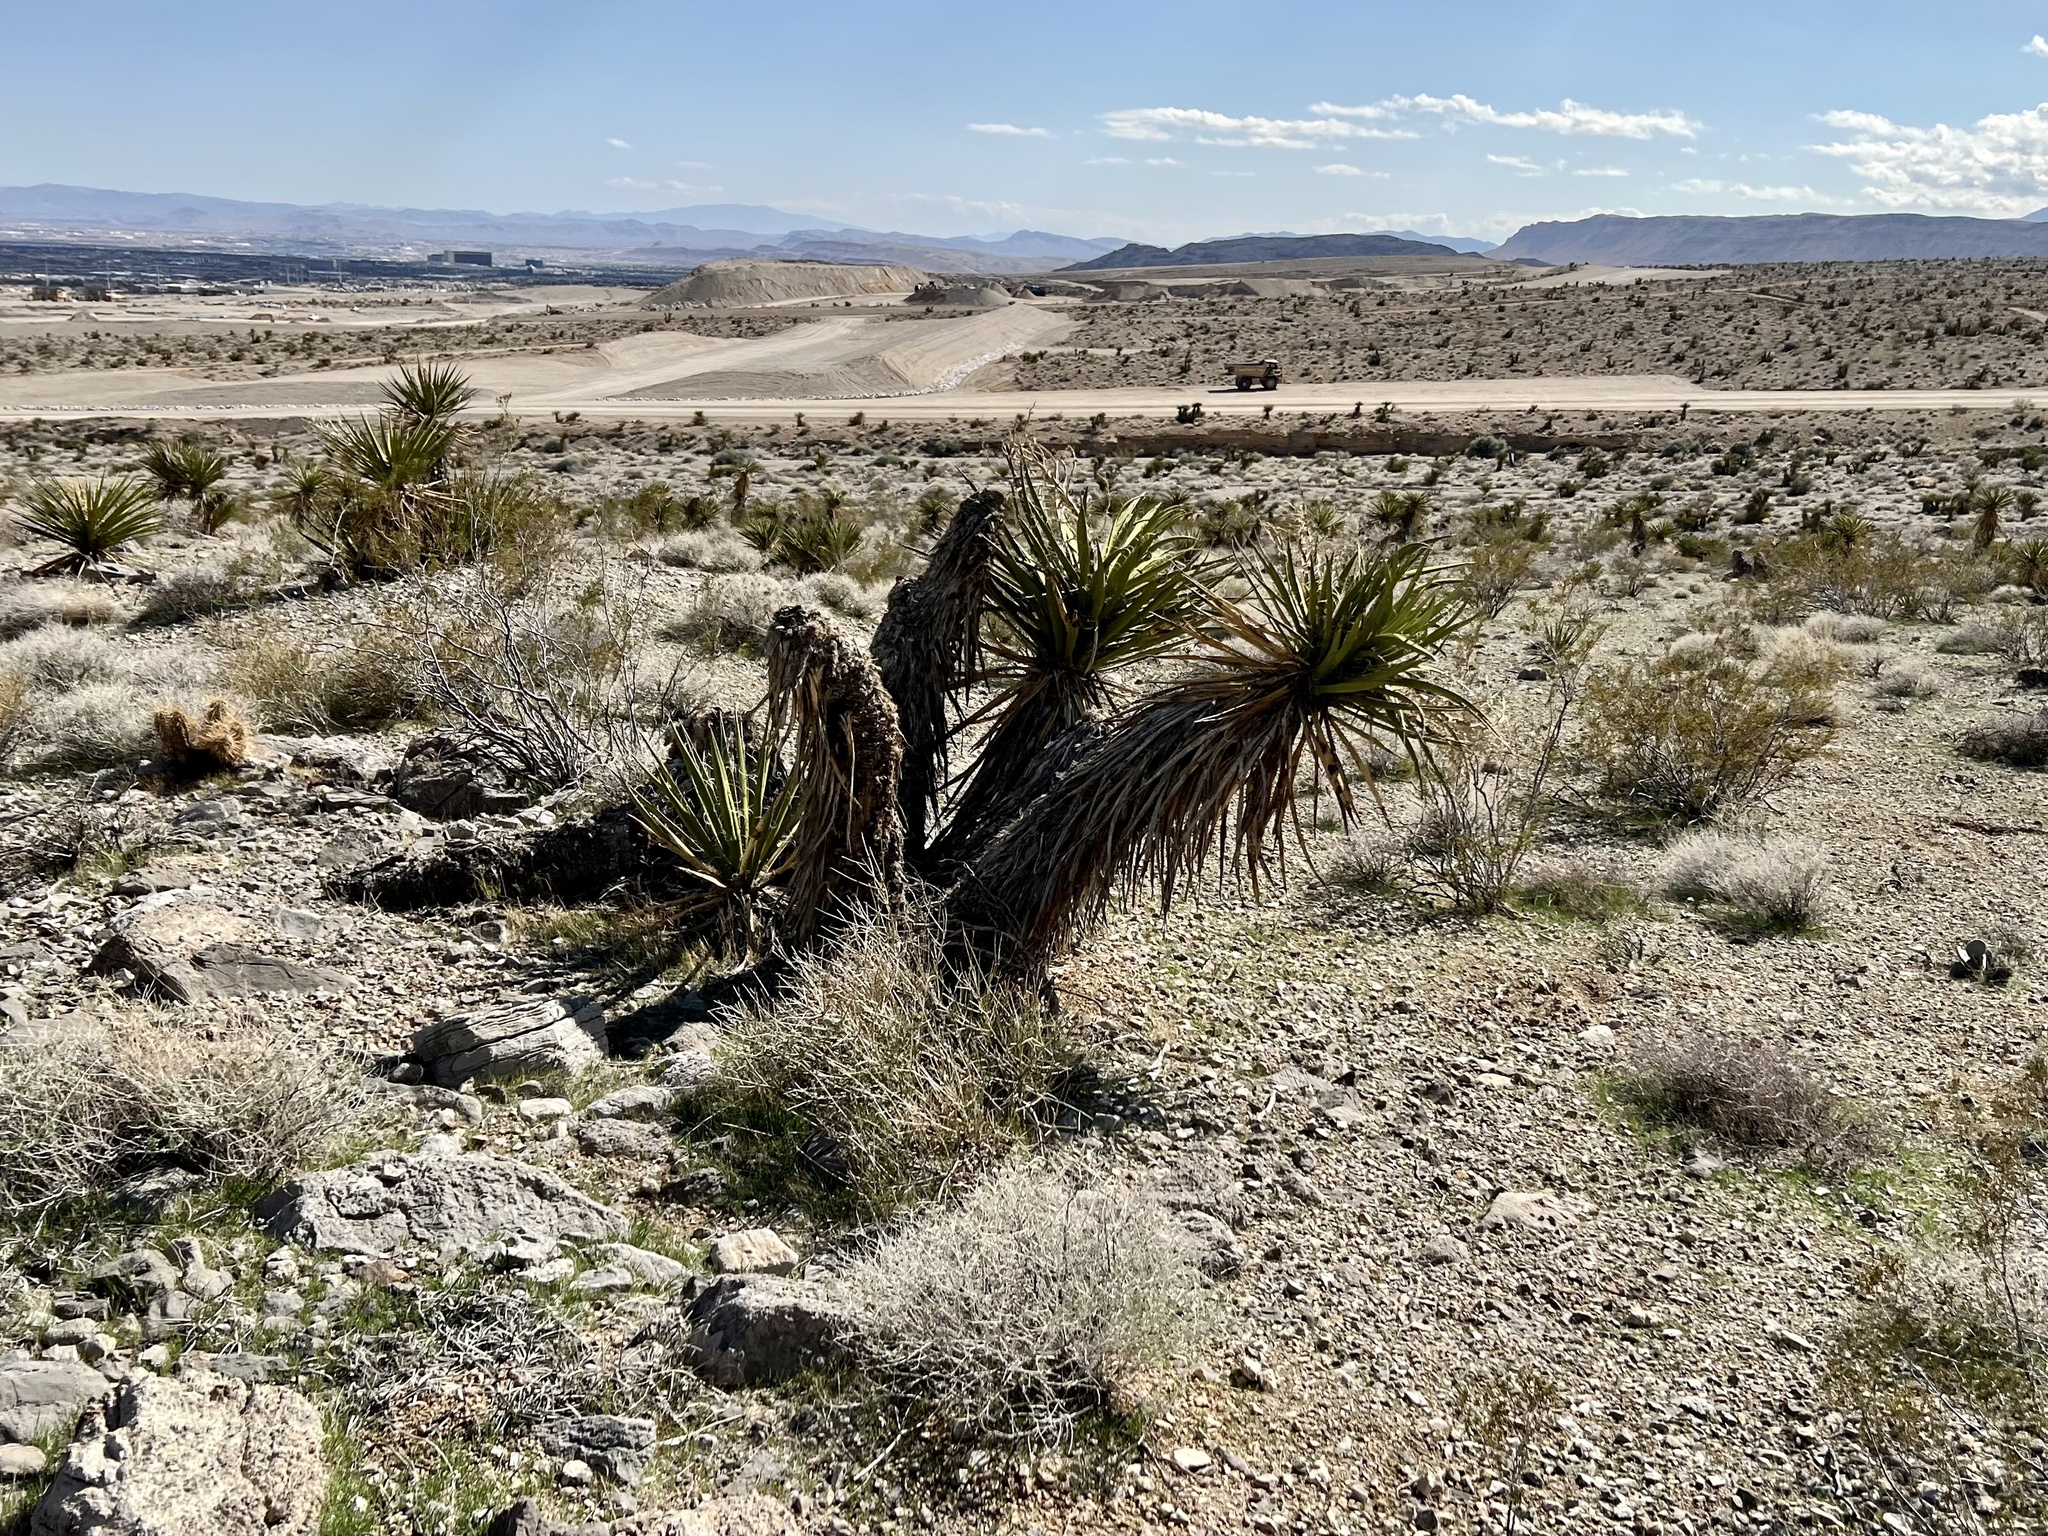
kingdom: Plantae
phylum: Tracheophyta
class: Liliopsida
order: Asparagales
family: Asparagaceae
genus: Yucca
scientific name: Yucca schidigera
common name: Mojave yucca
